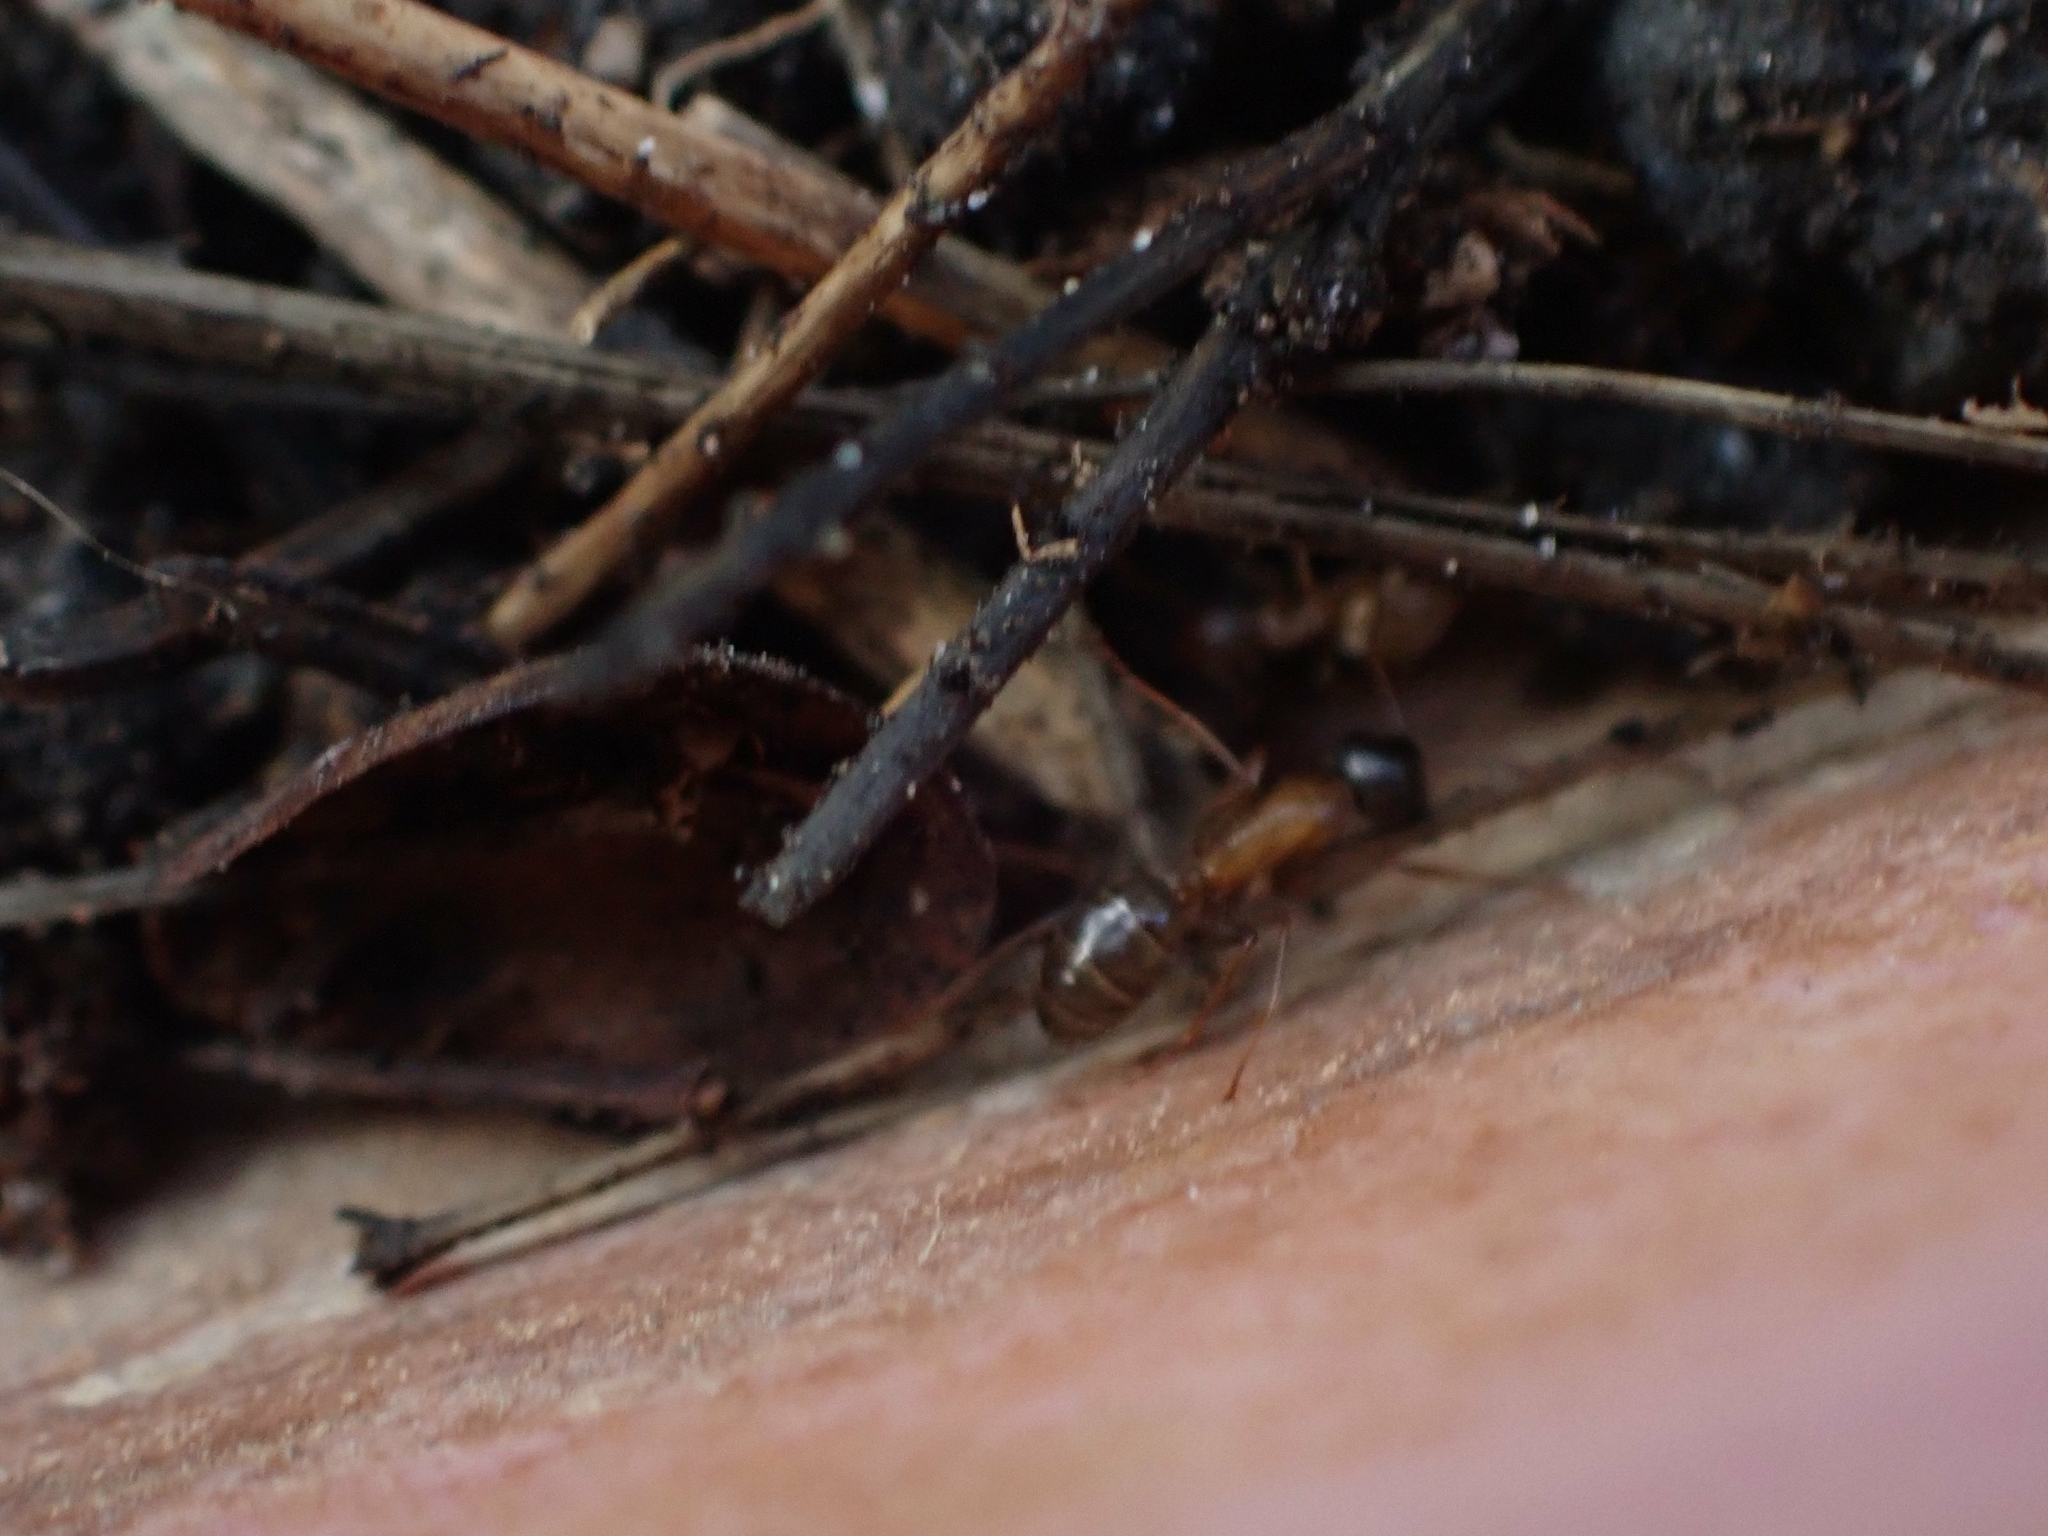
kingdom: Animalia
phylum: Arthropoda
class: Insecta
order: Hymenoptera
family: Formicidae
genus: Camponotus
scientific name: Camponotus novaeboracensis
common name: New york carpenter ant
